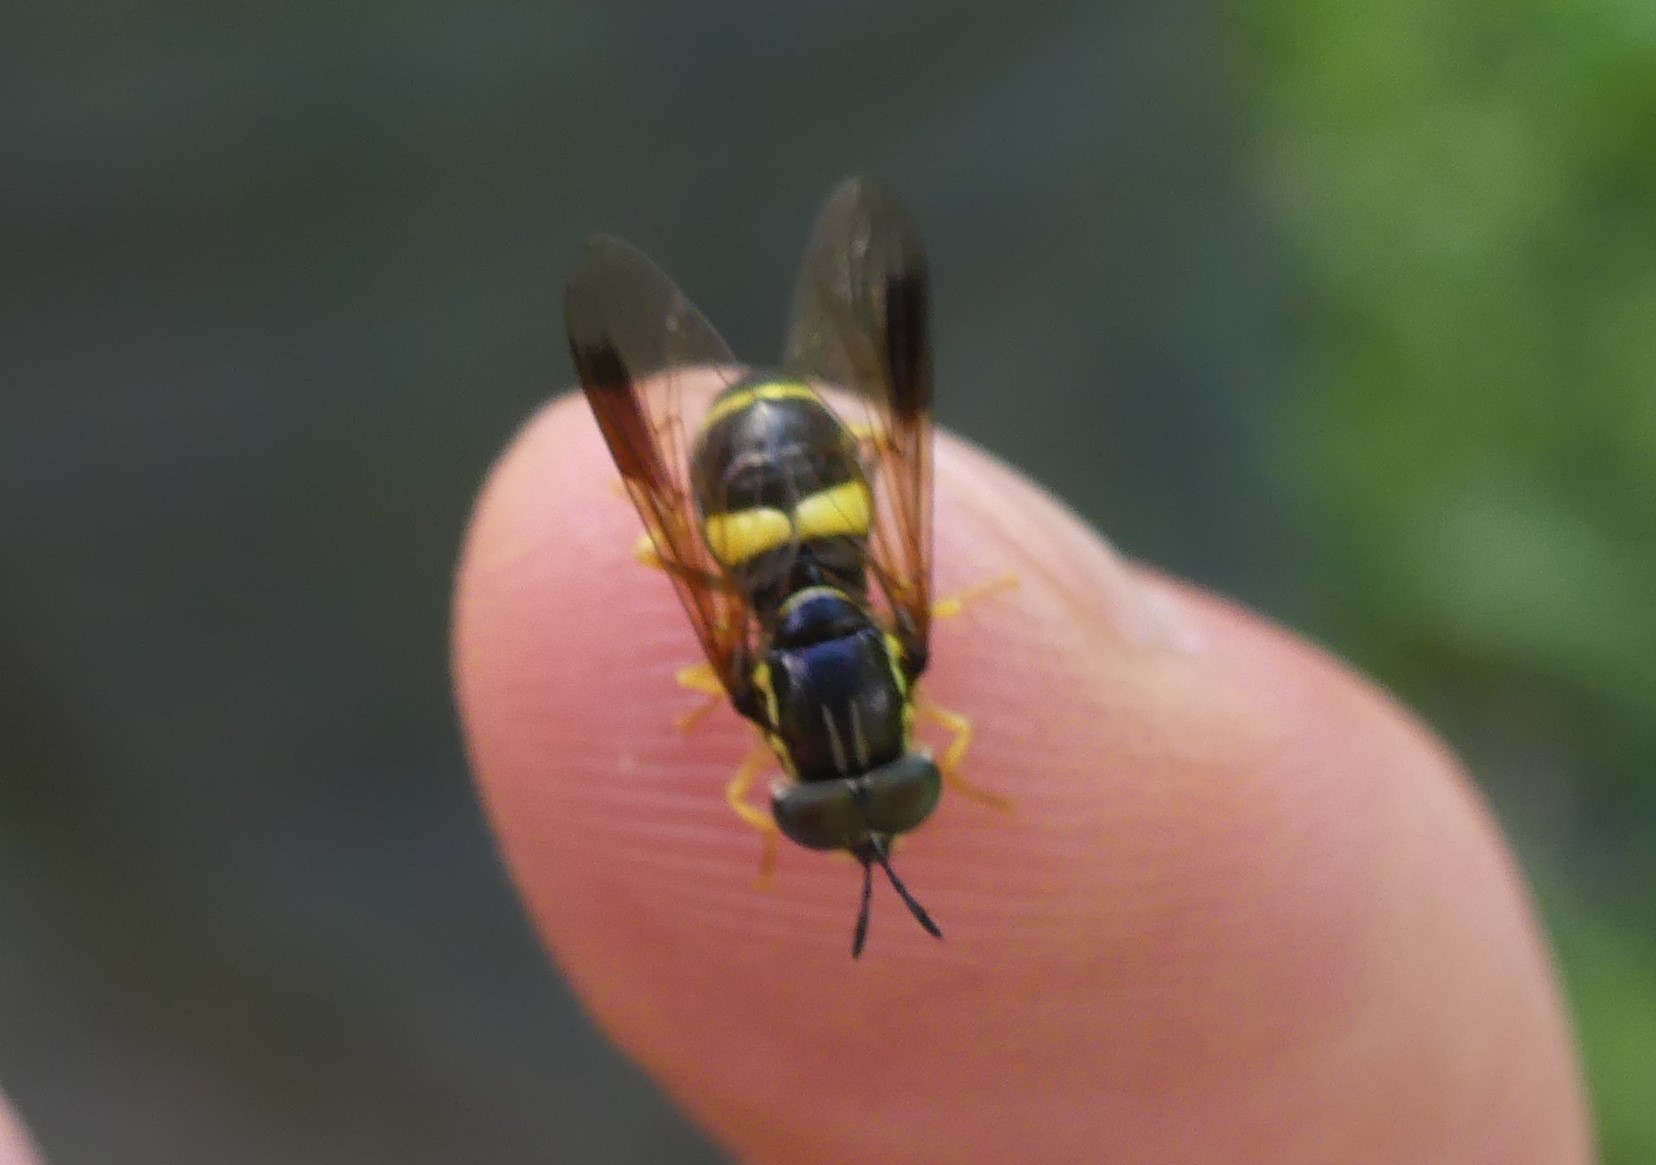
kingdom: Animalia
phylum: Arthropoda
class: Insecta
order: Diptera
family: Syrphidae
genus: Chrysotoxum
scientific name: Chrysotoxum bicincta
